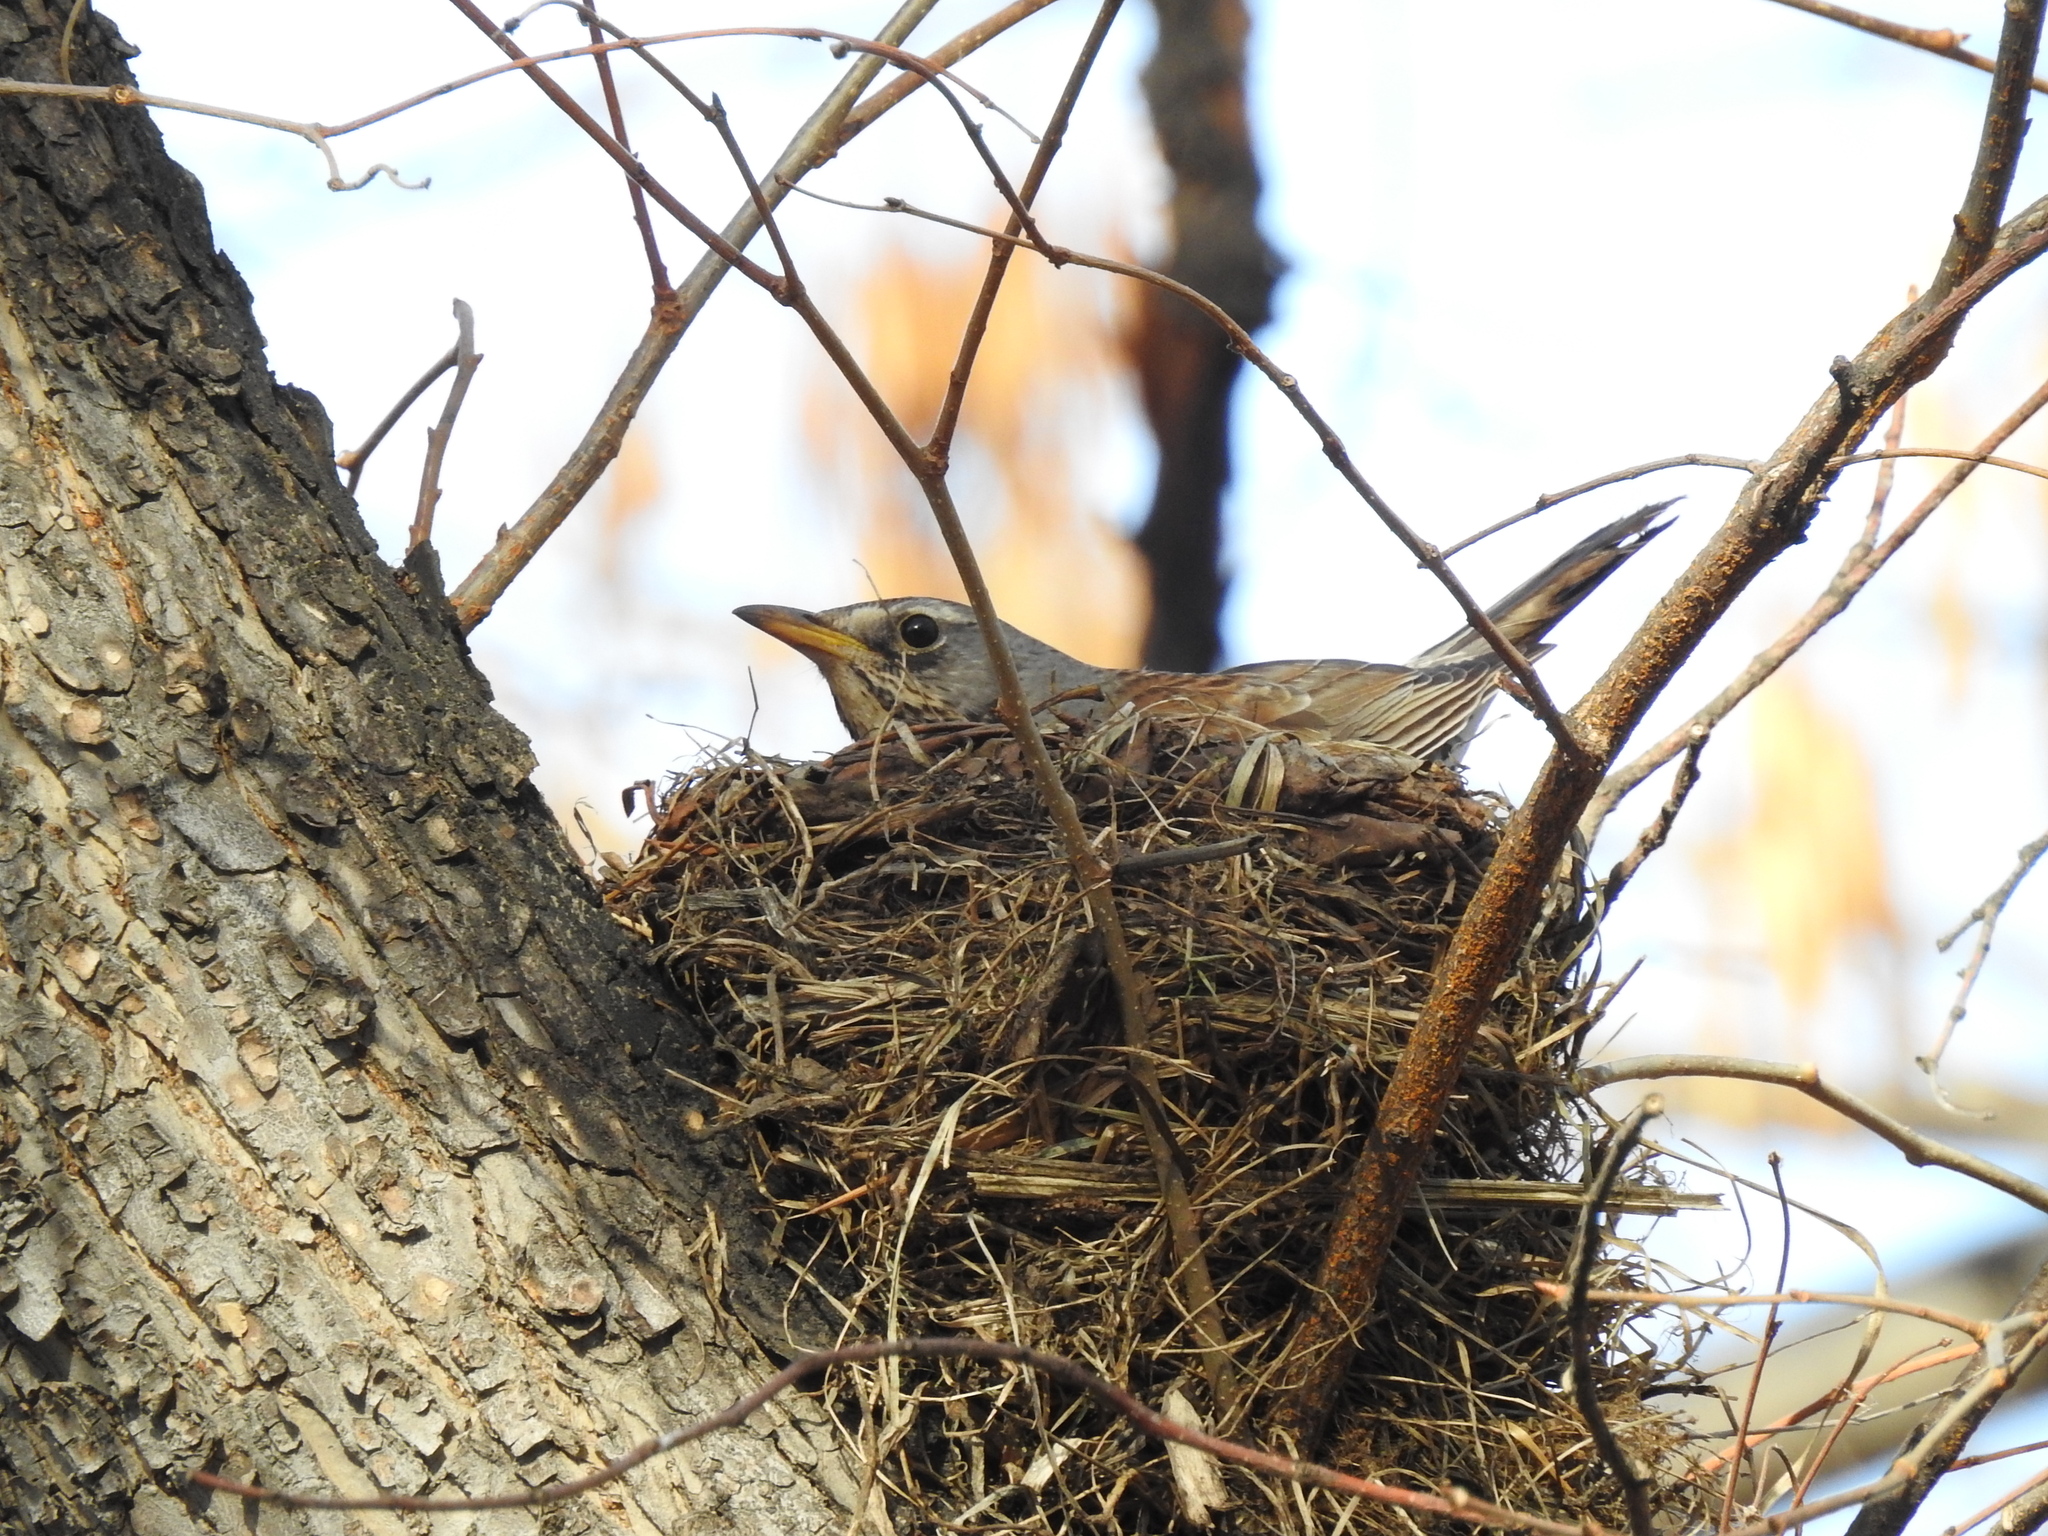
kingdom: Animalia
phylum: Chordata
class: Aves
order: Passeriformes
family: Turdidae
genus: Turdus
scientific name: Turdus pilaris
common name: Fieldfare
